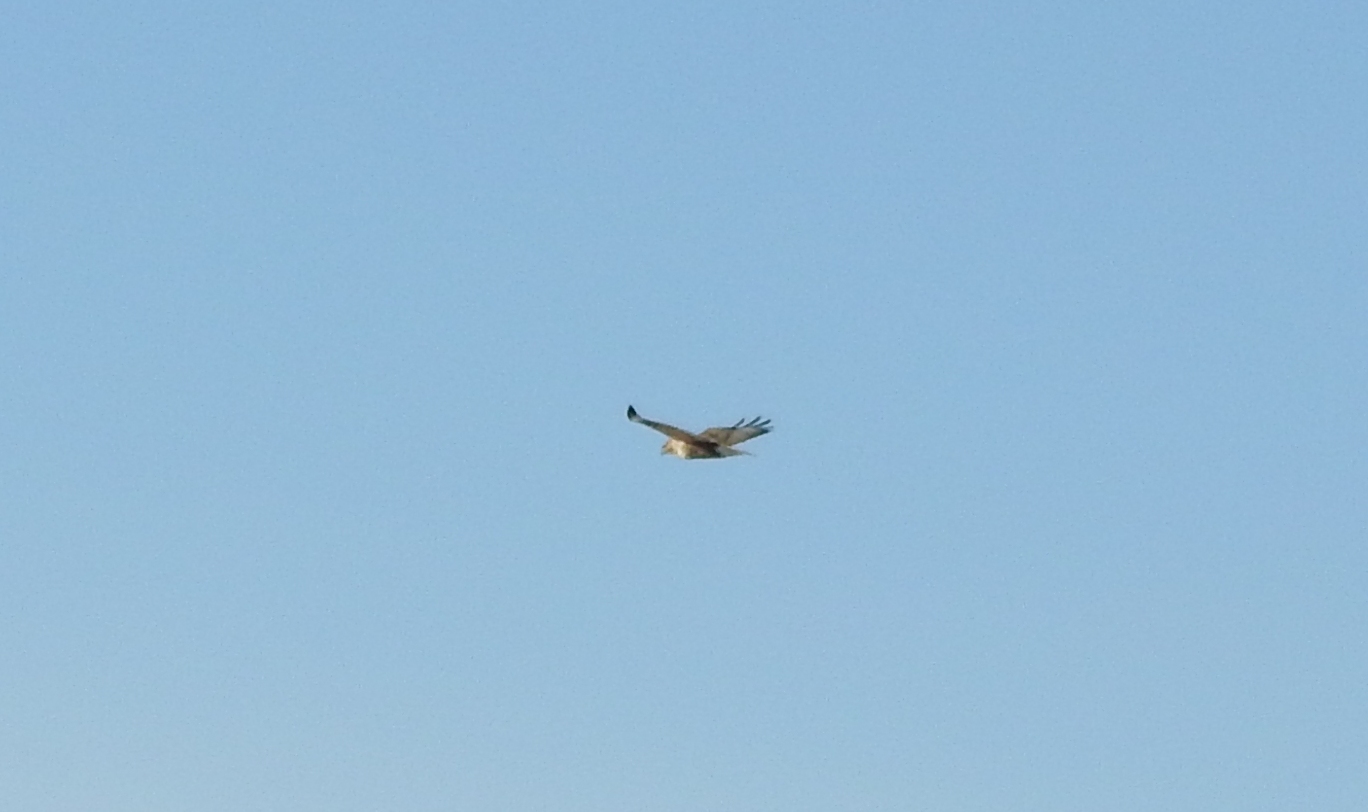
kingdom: Animalia
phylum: Chordata
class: Aves
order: Accipitriformes
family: Accipitridae
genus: Buteo
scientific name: Buteo hemilasius
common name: Upland buzzard
